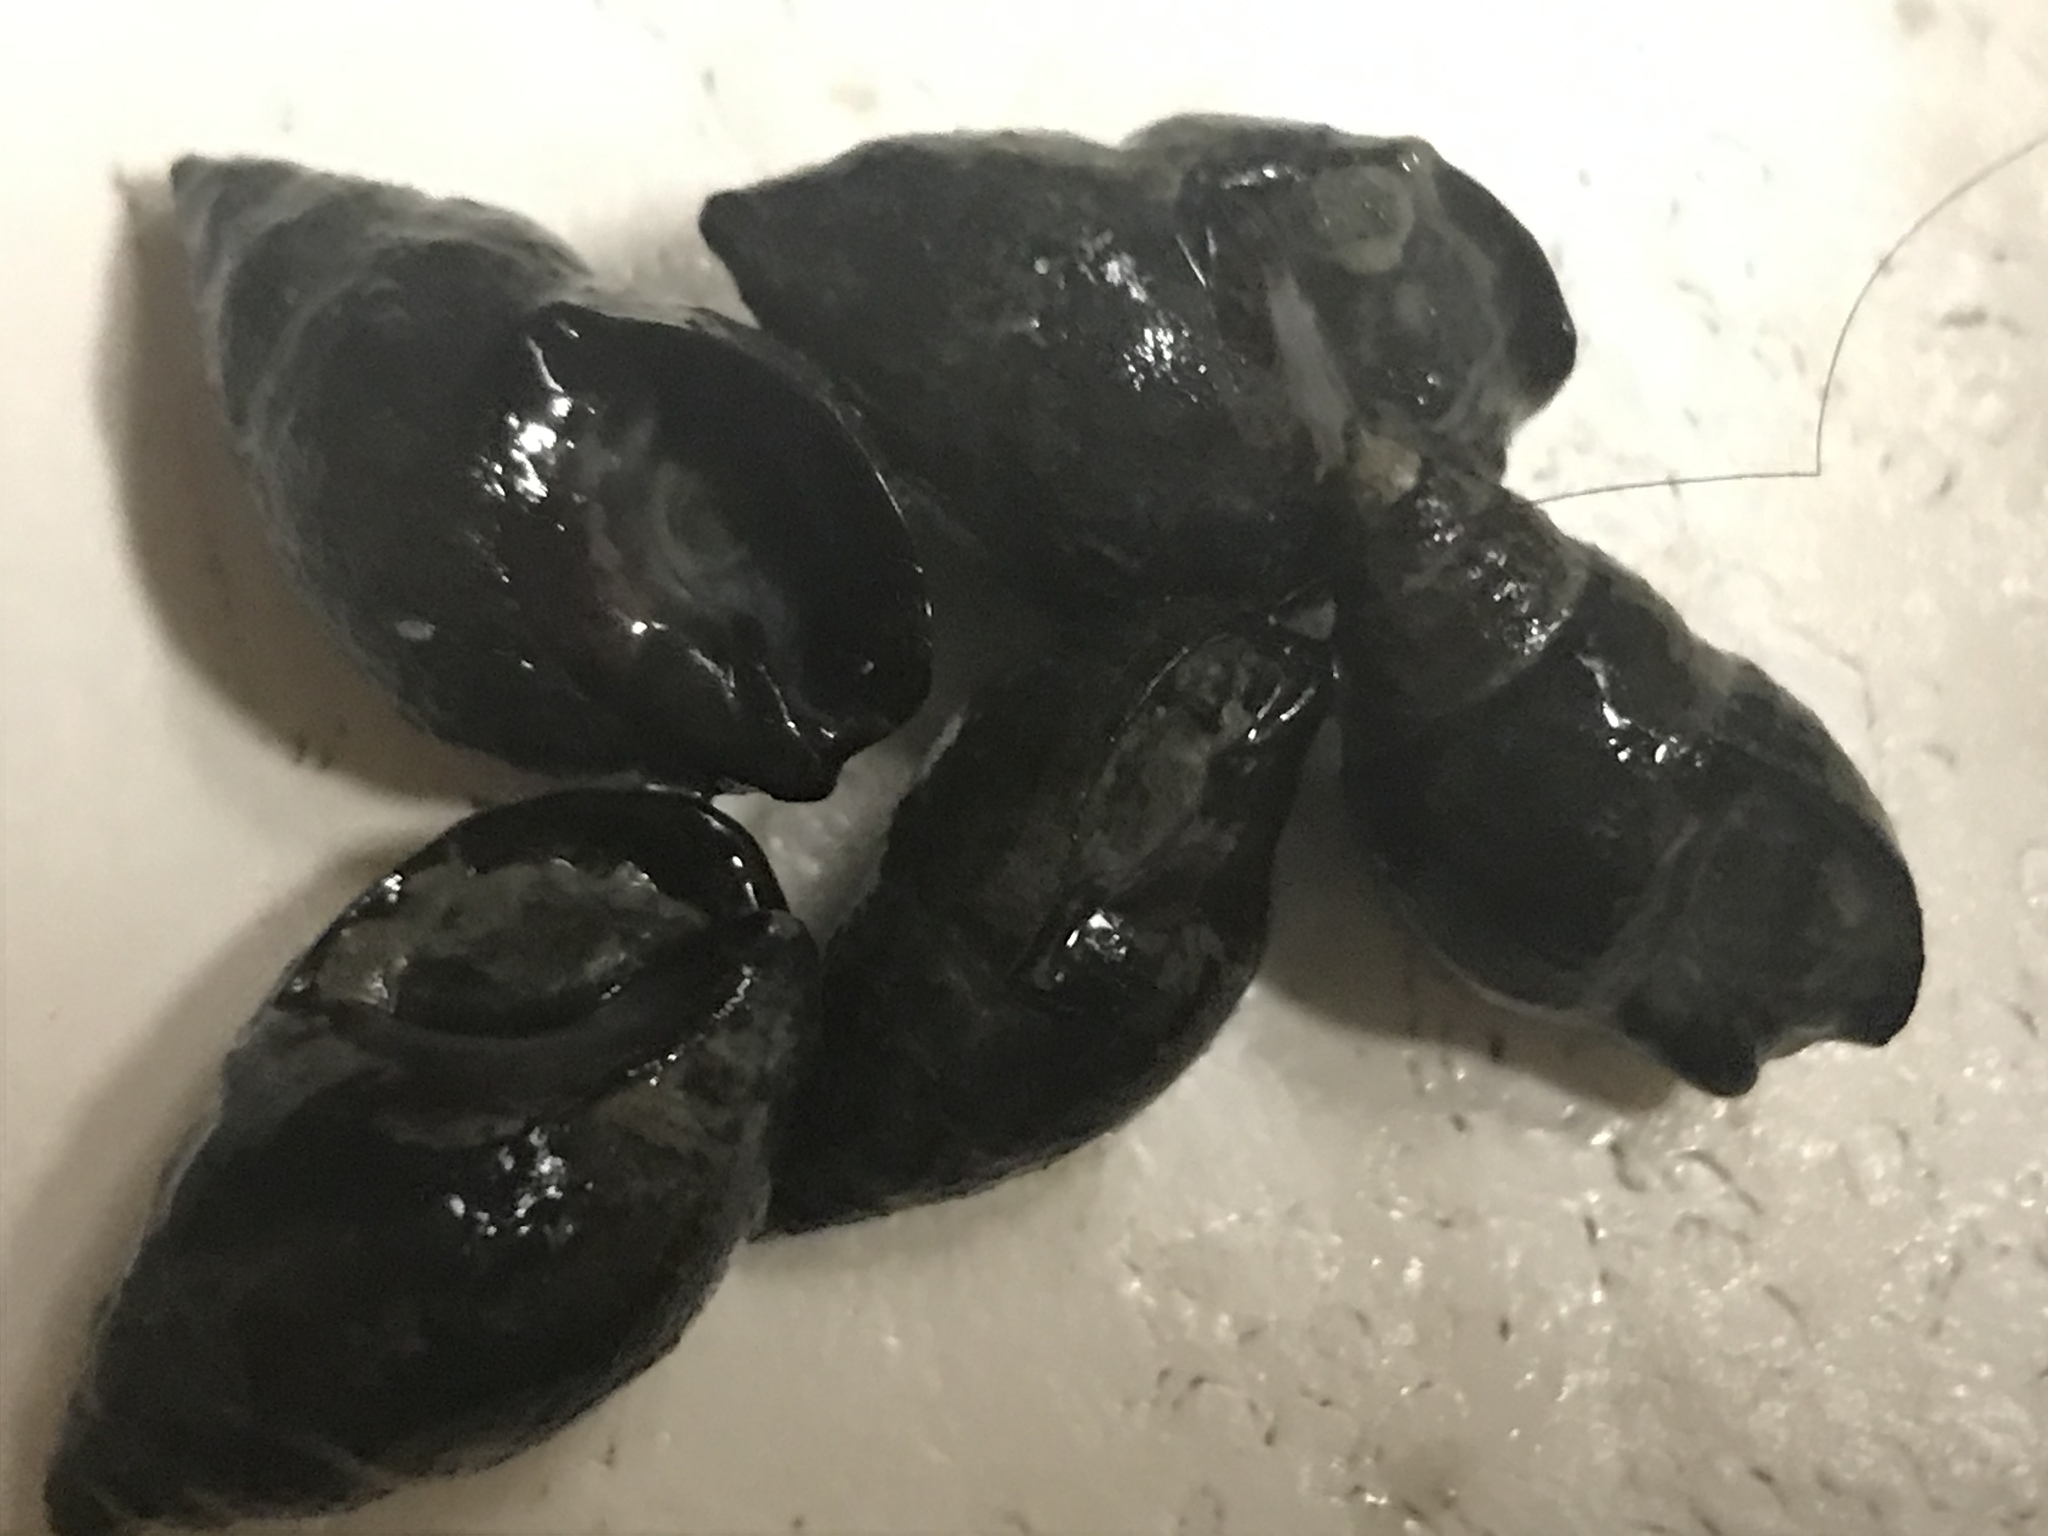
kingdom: Animalia
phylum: Mollusca
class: Gastropoda
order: Neogastropoda
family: Nassariidae
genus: Ilyanassa
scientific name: Ilyanassa obsoleta
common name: Eastern mudsnail
